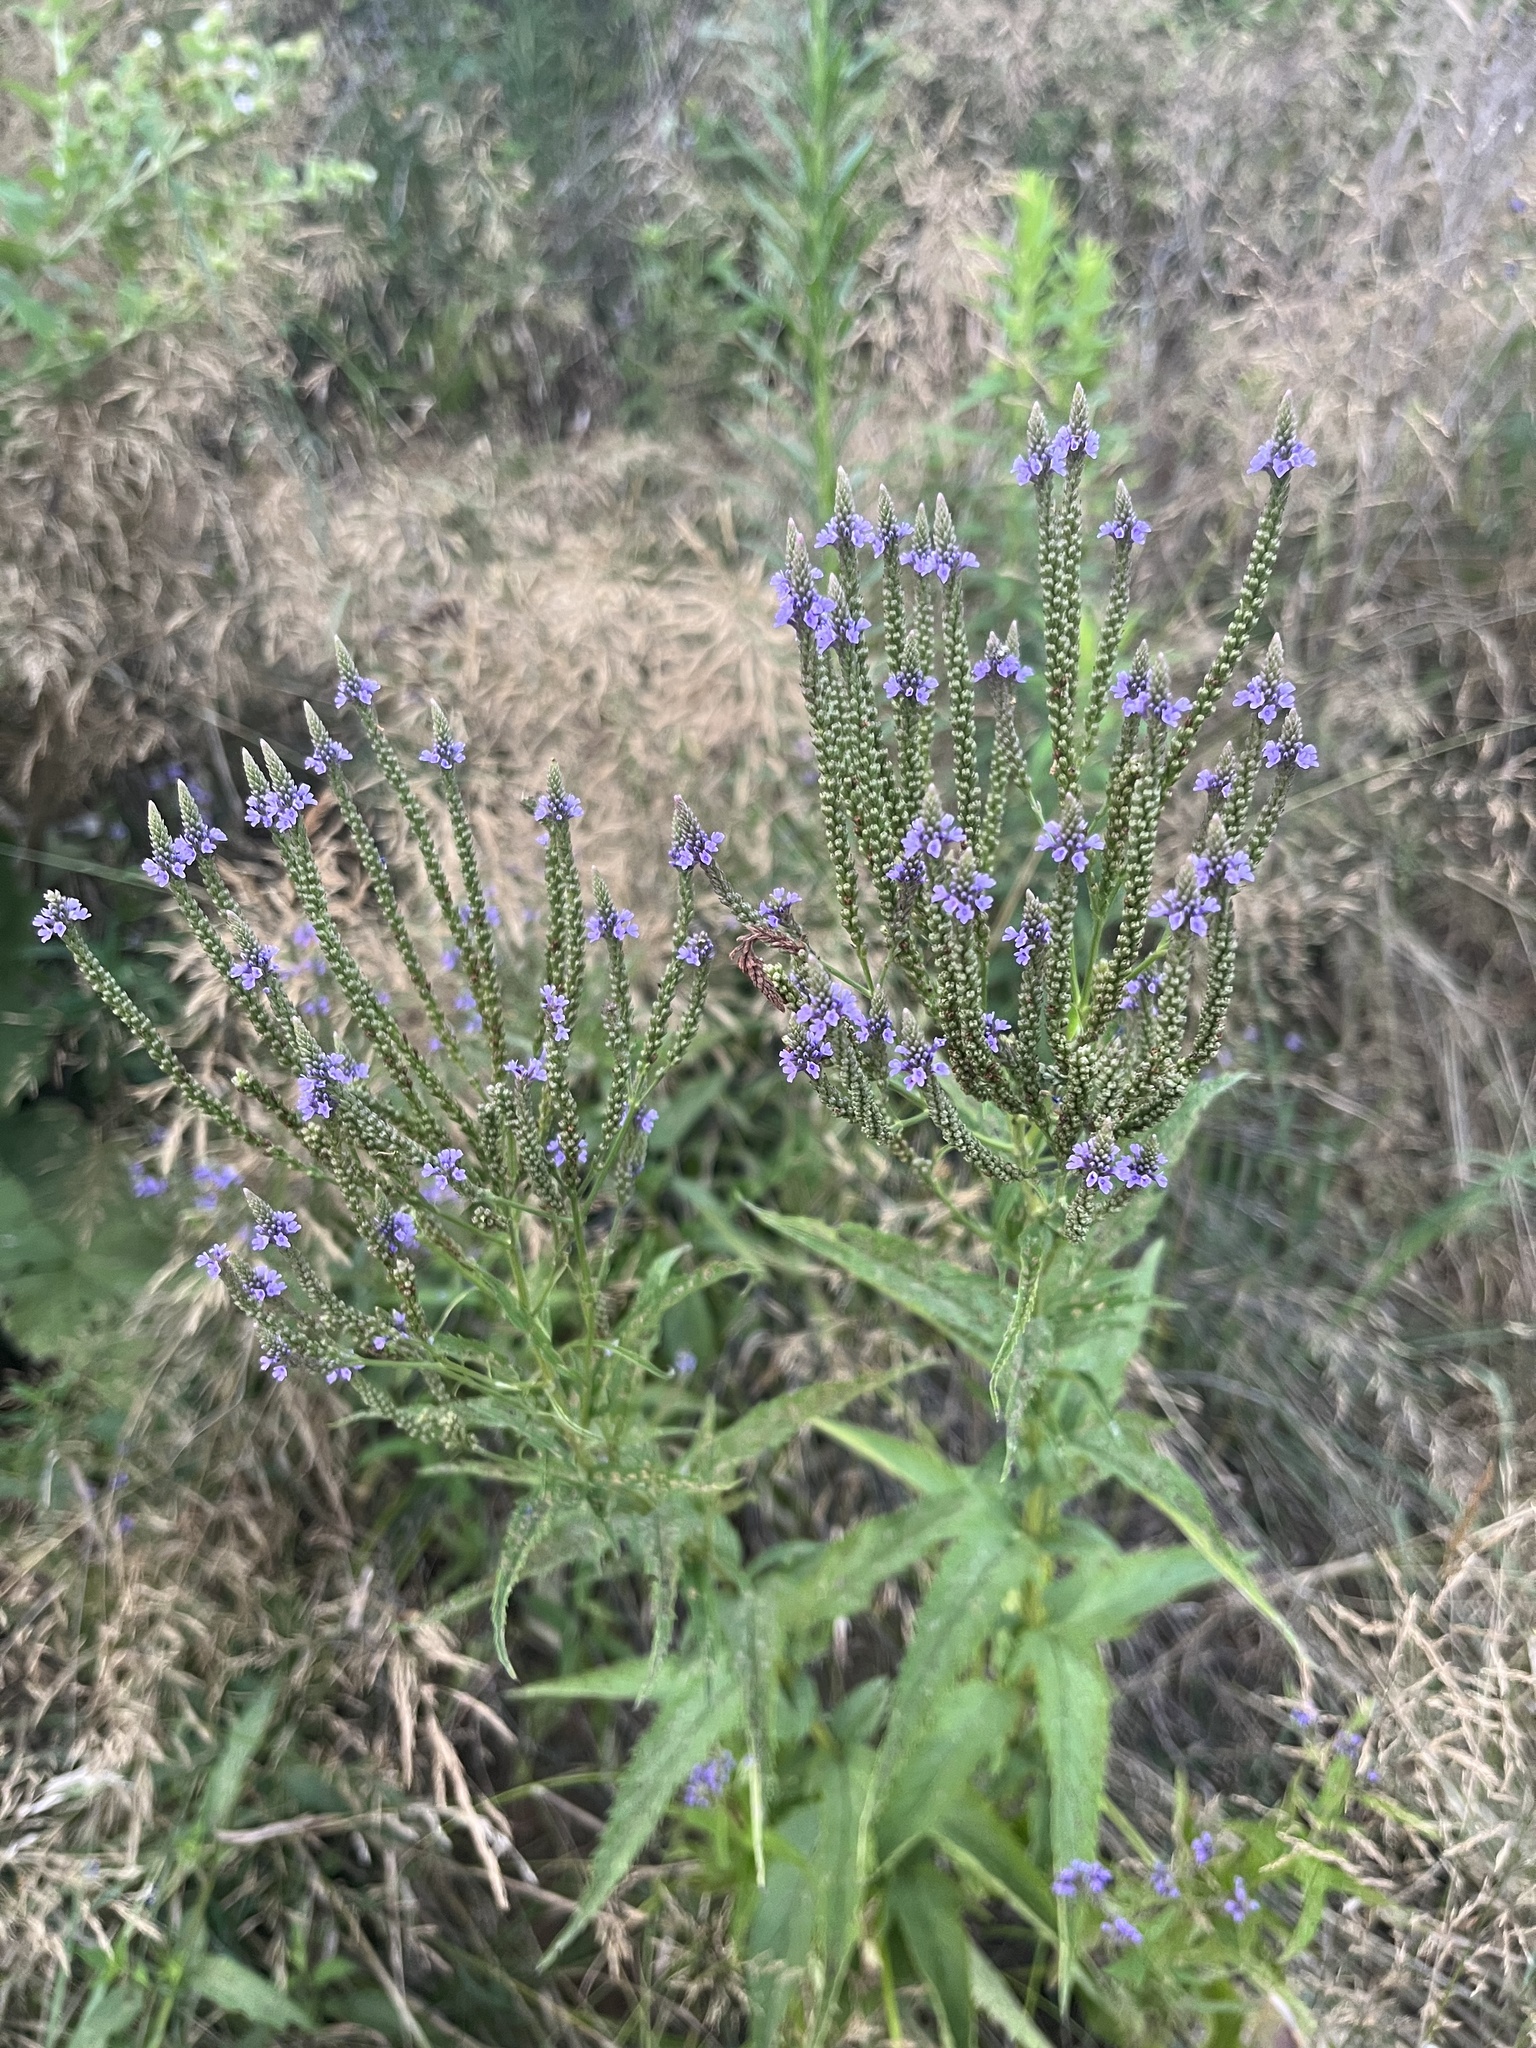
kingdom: Plantae
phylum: Tracheophyta
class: Magnoliopsida
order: Lamiales
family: Verbenaceae
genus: Verbena
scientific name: Verbena hastata
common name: American blue vervain
